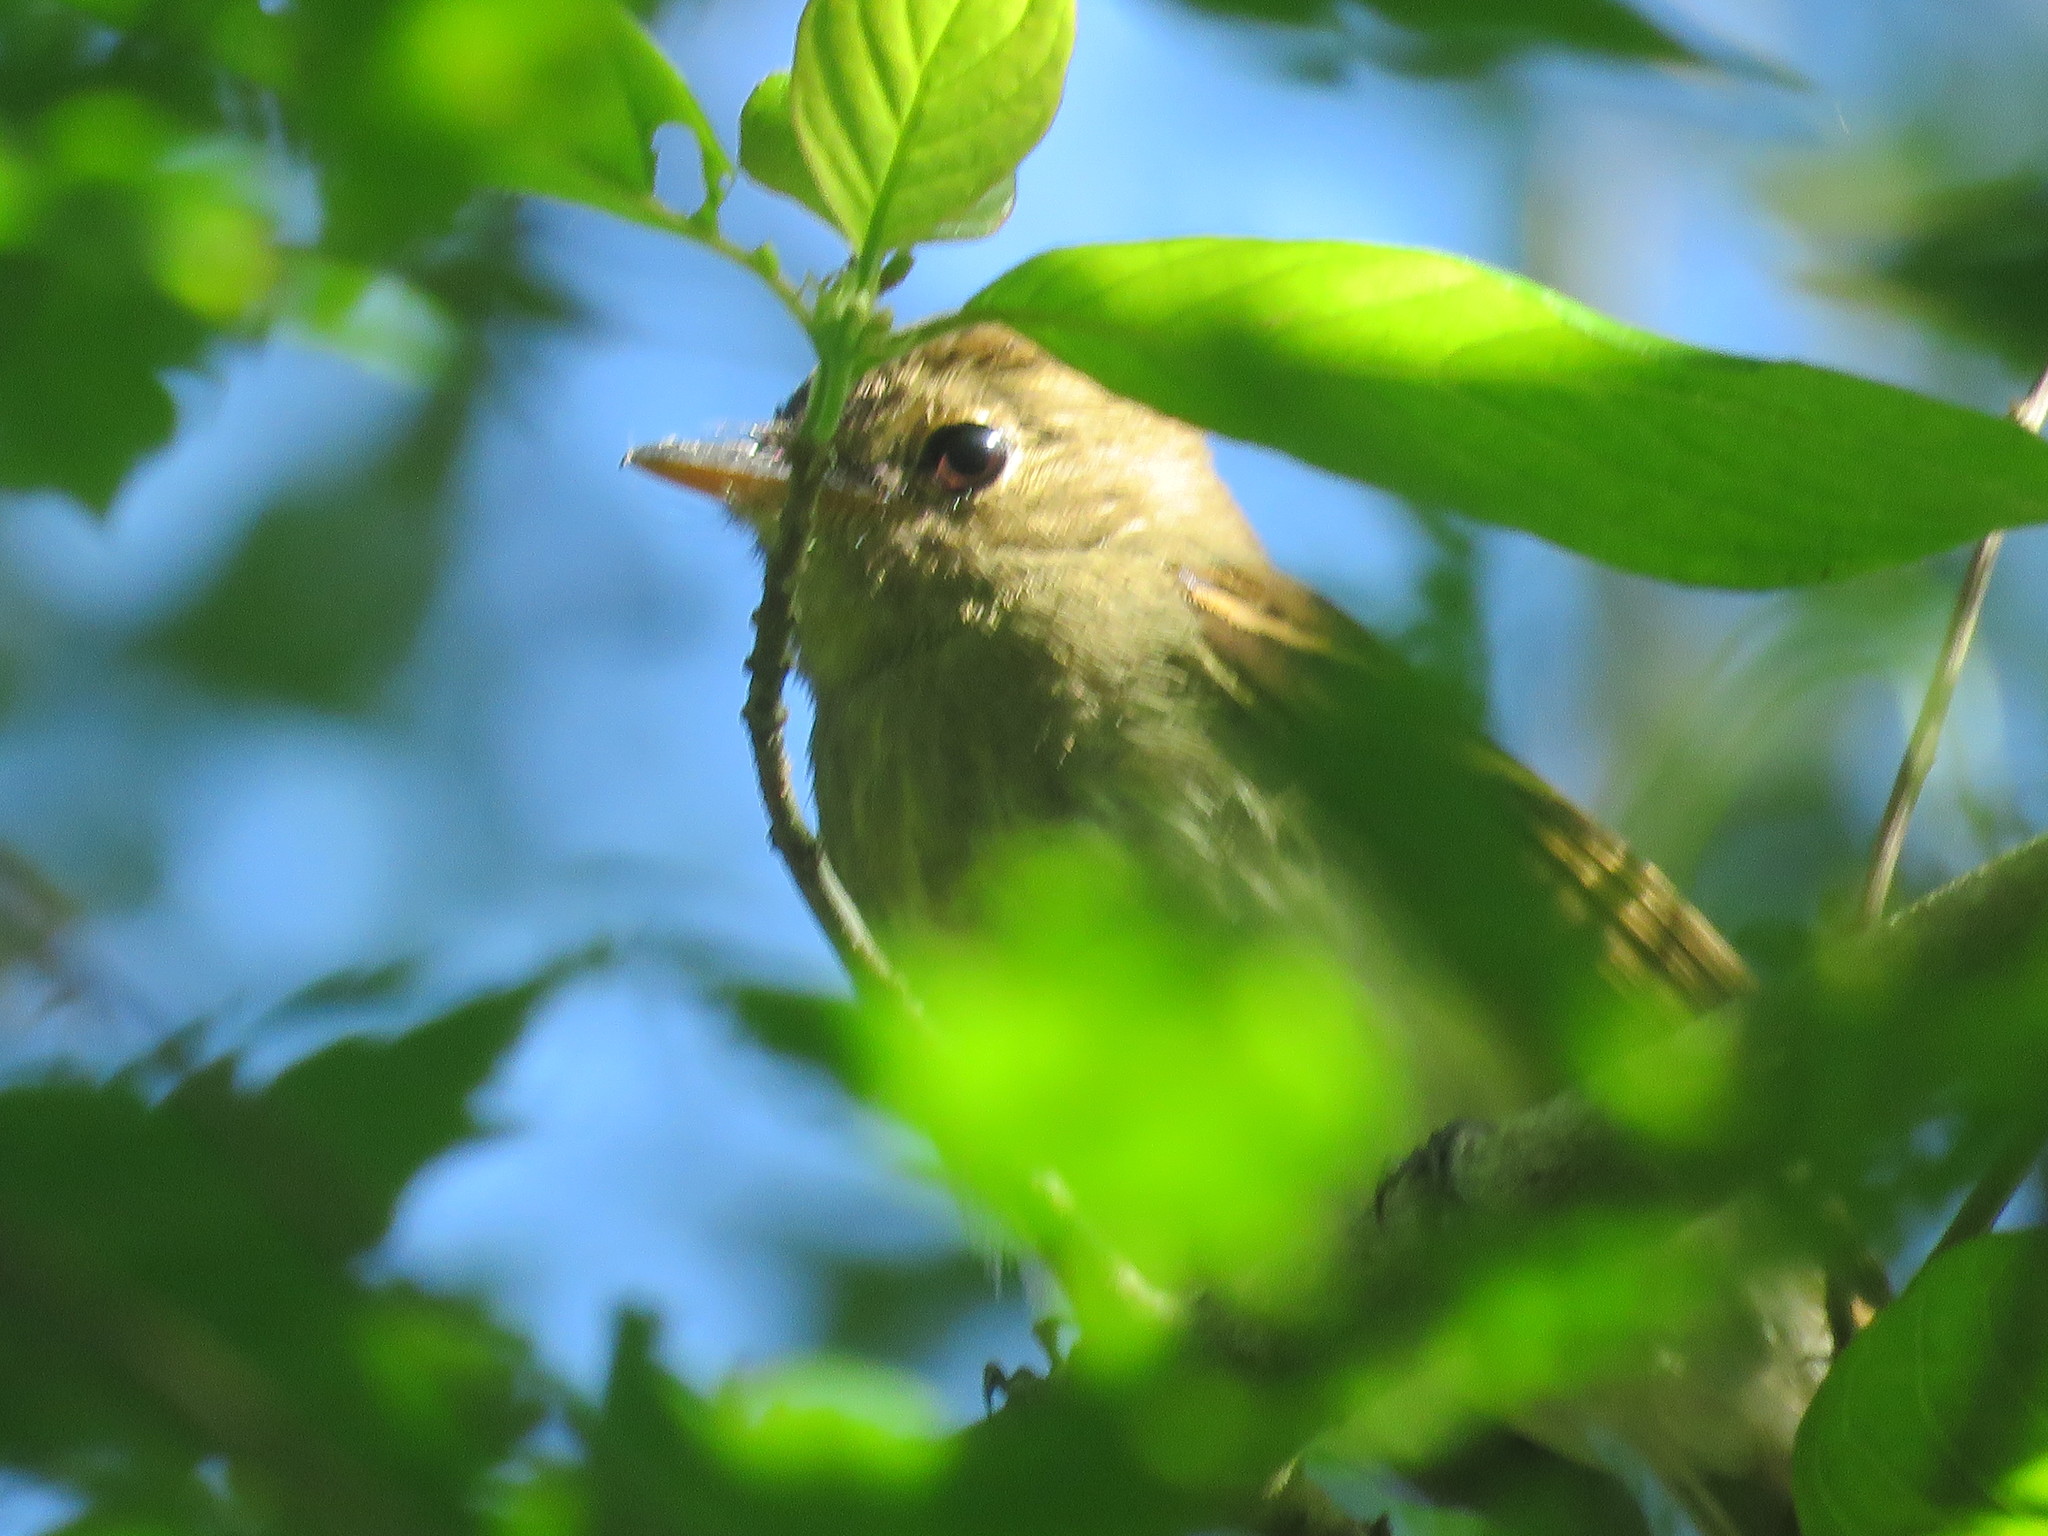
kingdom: Animalia
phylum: Chordata
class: Aves
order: Passeriformes
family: Tyrannidae
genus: Lathrotriccus
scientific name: Lathrotriccus euleri
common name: Euler's flycatcher
